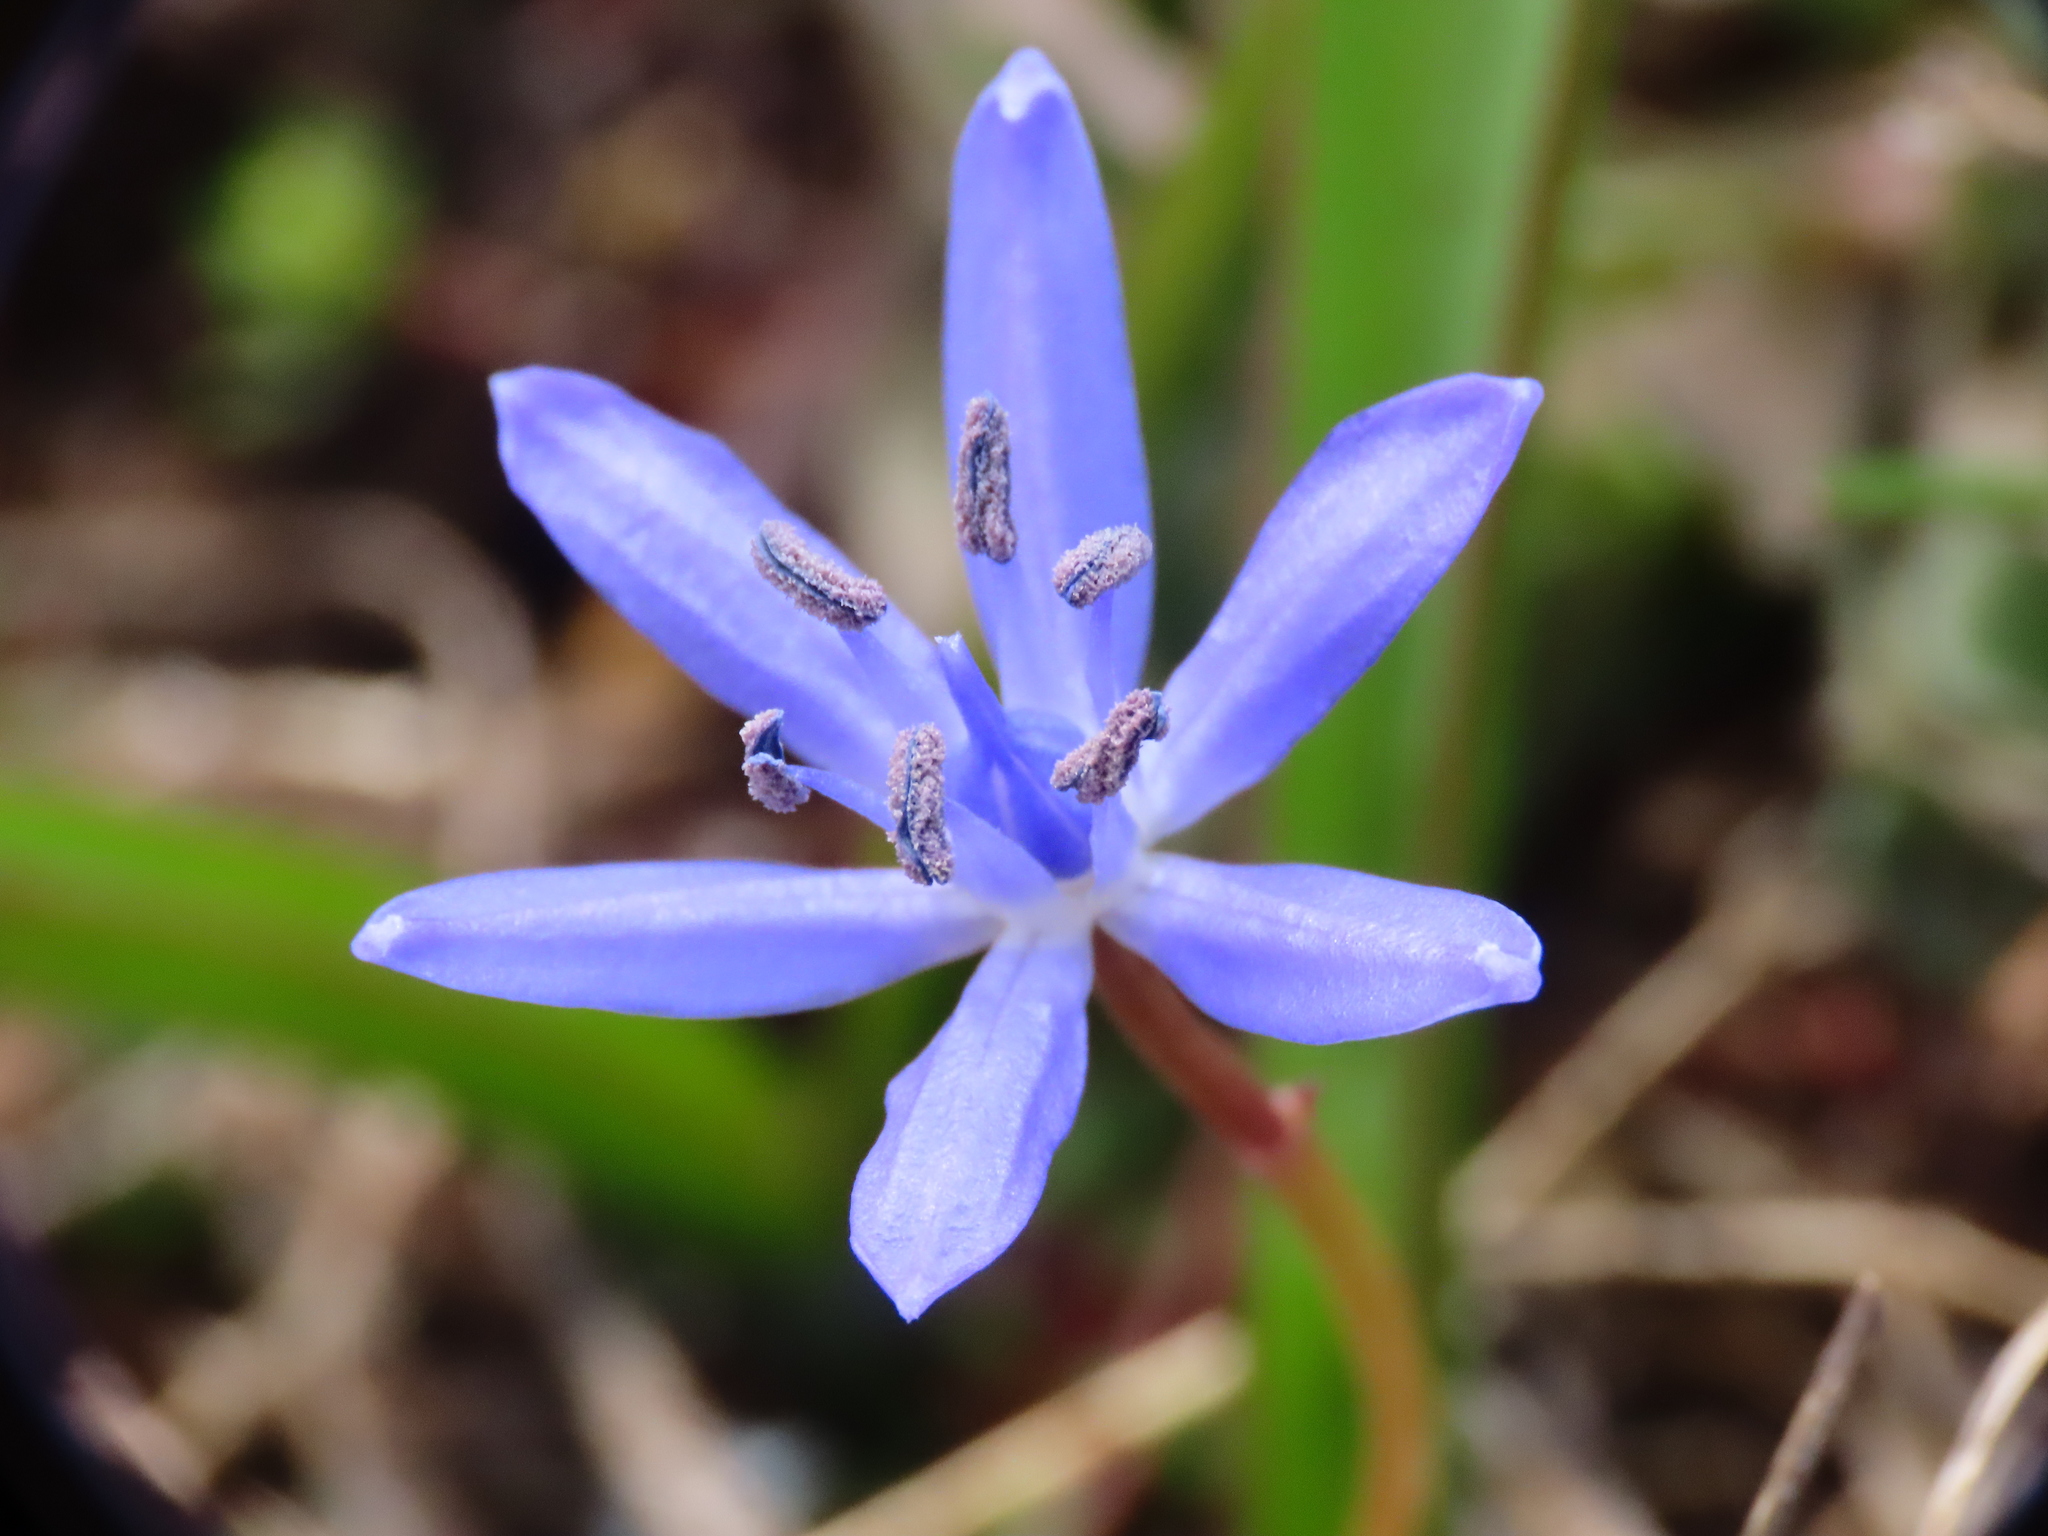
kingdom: Plantae
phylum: Tracheophyta
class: Liliopsida
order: Asparagales
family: Asparagaceae
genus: Scilla
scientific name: Scilla bifolia
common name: Alpine squill
